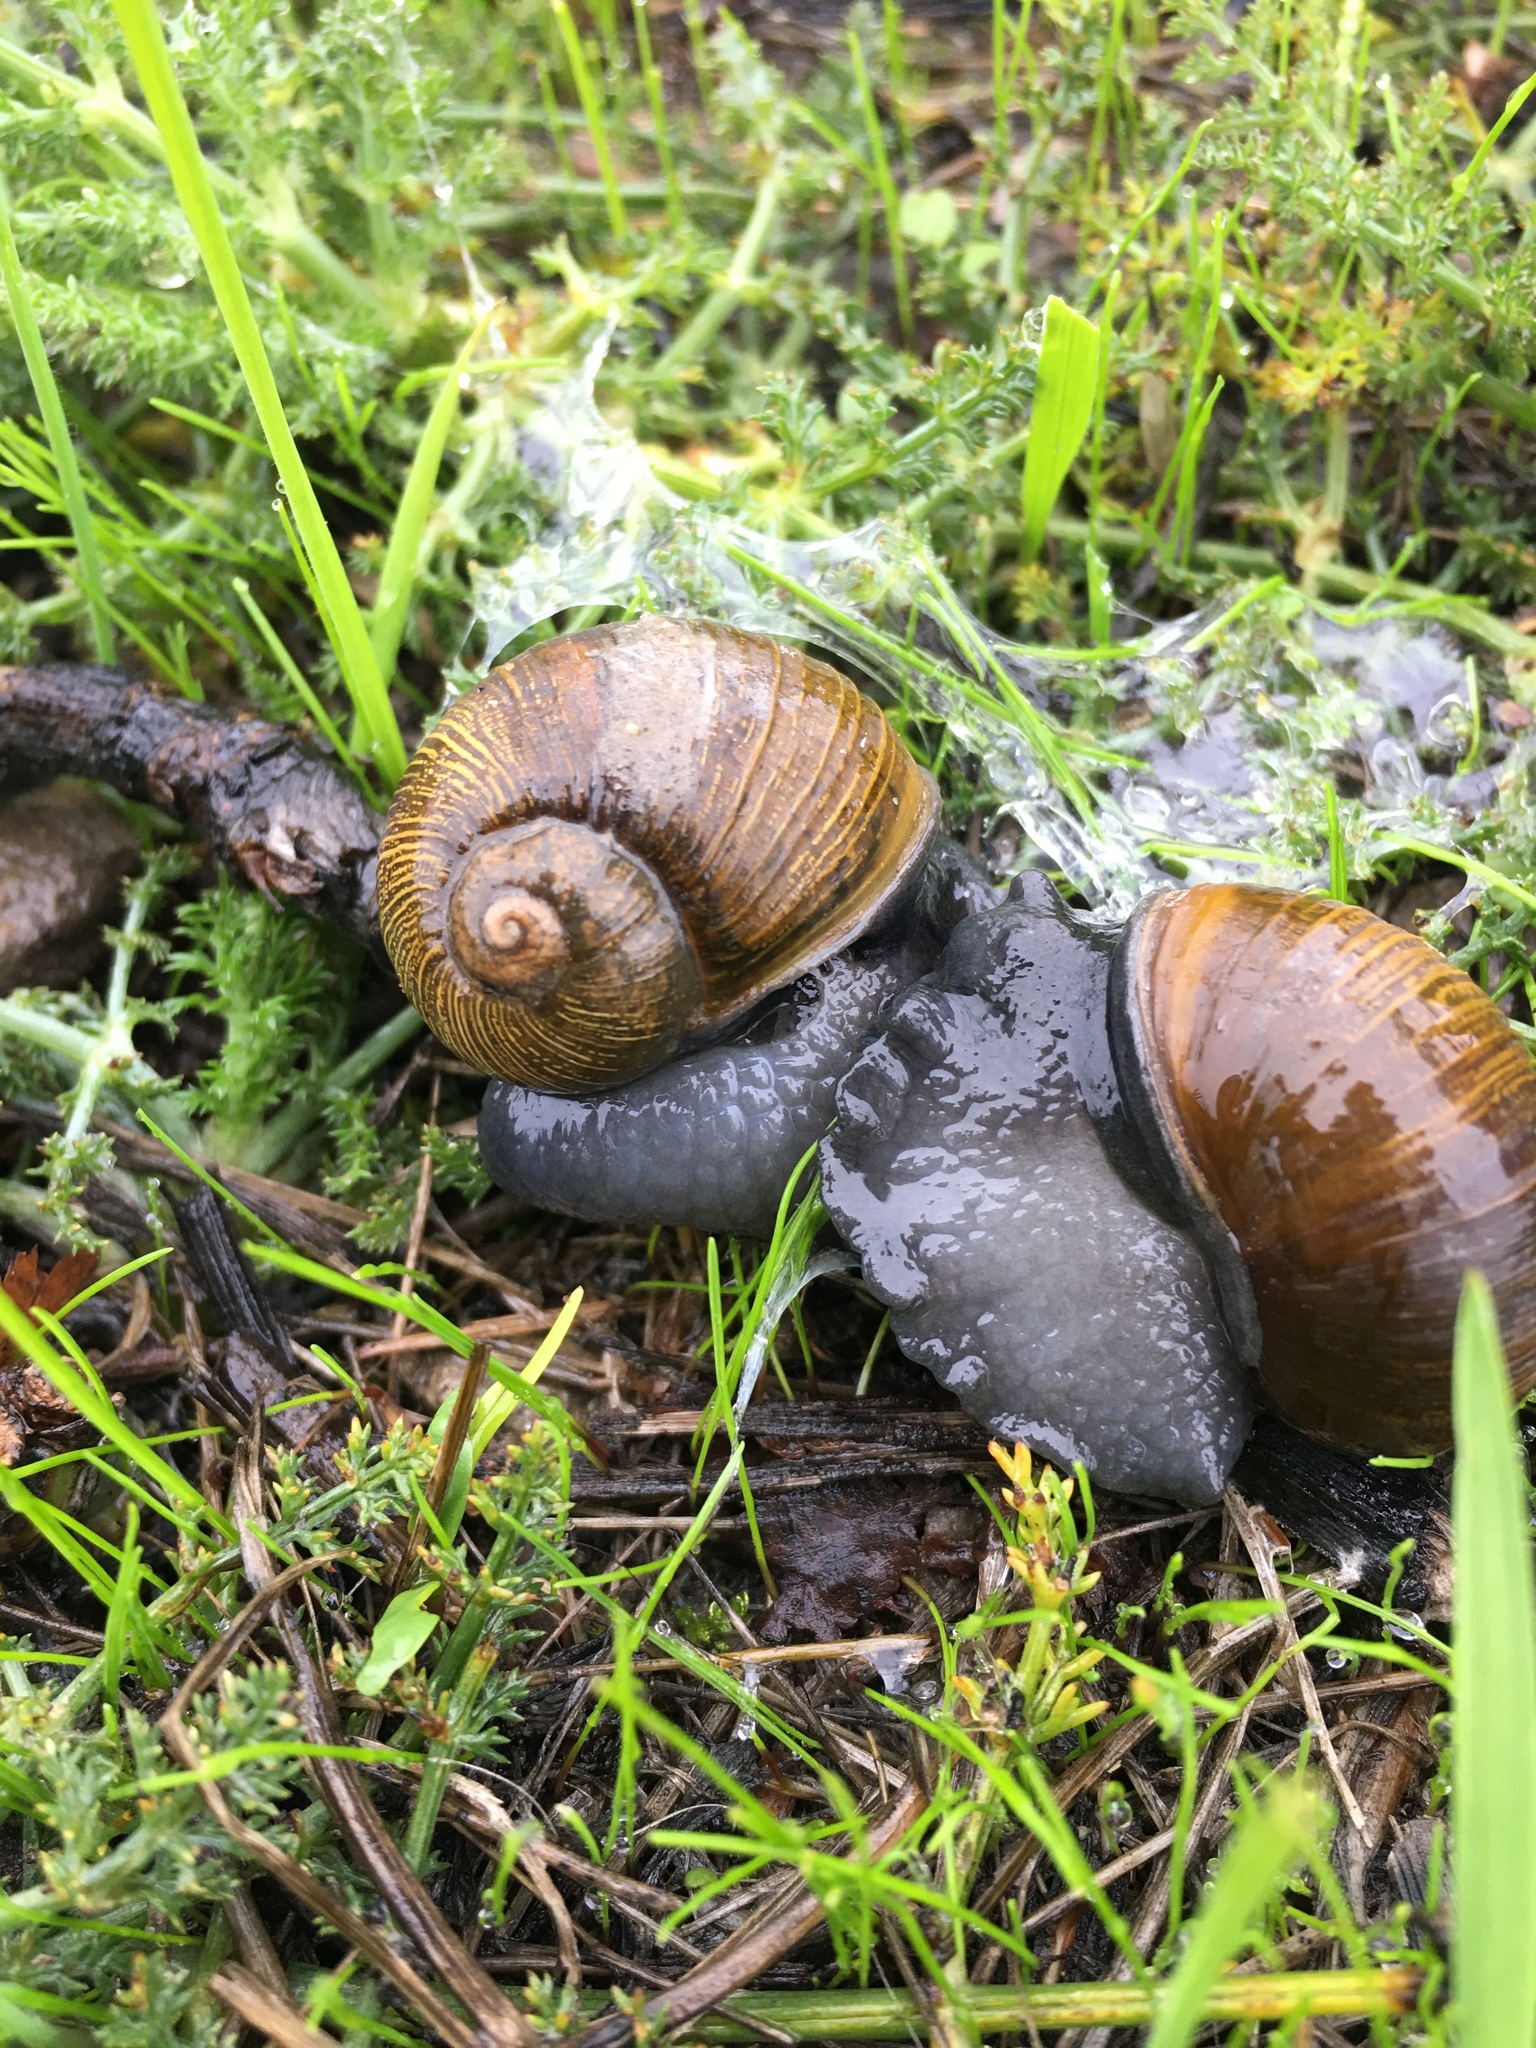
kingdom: Animalia
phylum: Mollusca
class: Gastropoda
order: Stylommatophora
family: Helicidae
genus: Cantareus
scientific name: Cantareus apertus
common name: Green gardensnail
